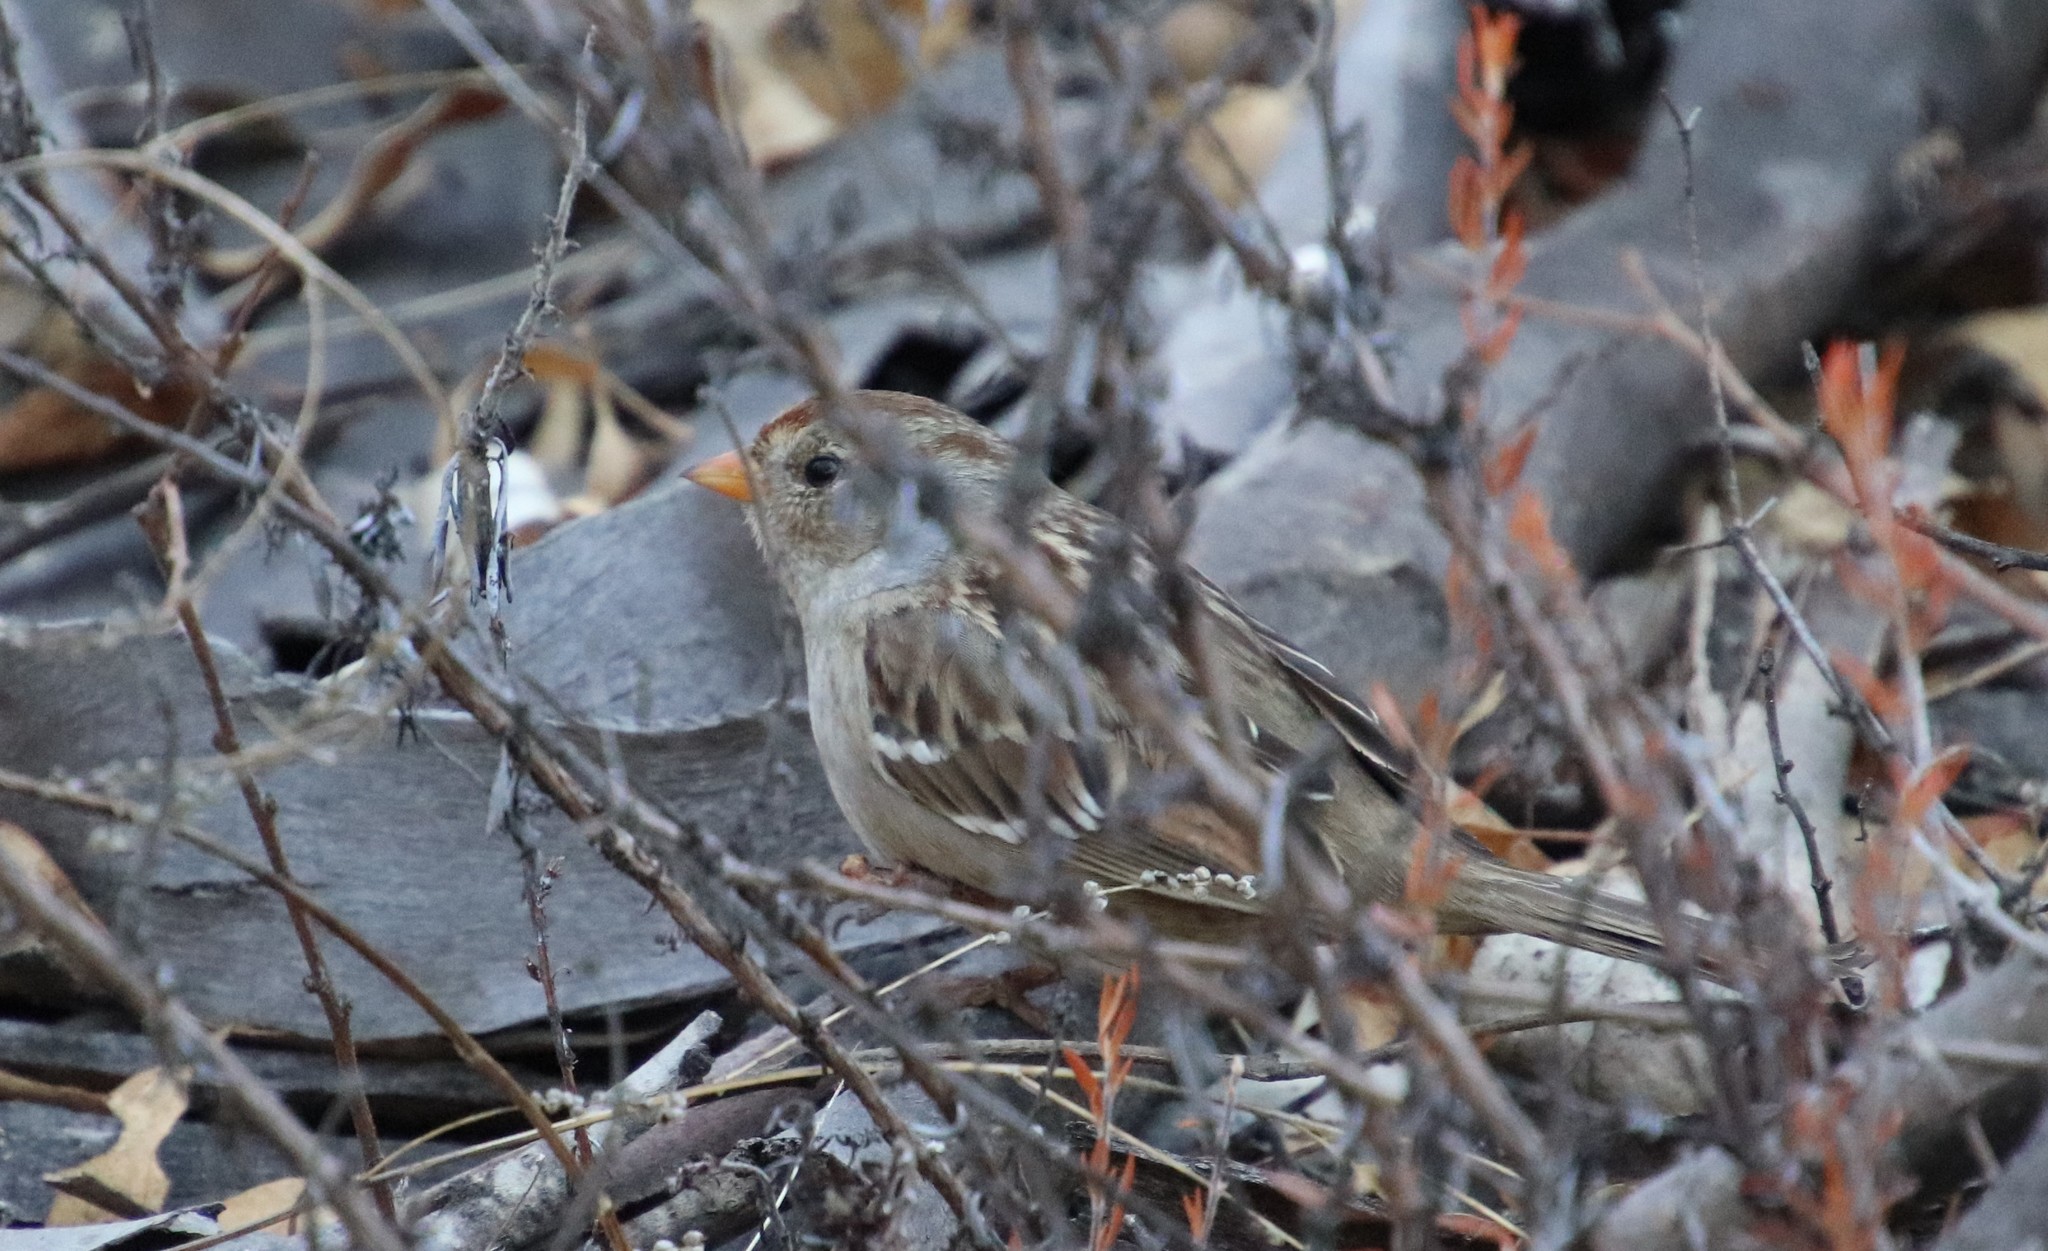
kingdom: Animalia
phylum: Chordata
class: Aves
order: Passeriformes
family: Passerellidae
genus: Zonotrichia
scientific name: Zonotrichia leucophrys
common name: White-crowned sparrow
